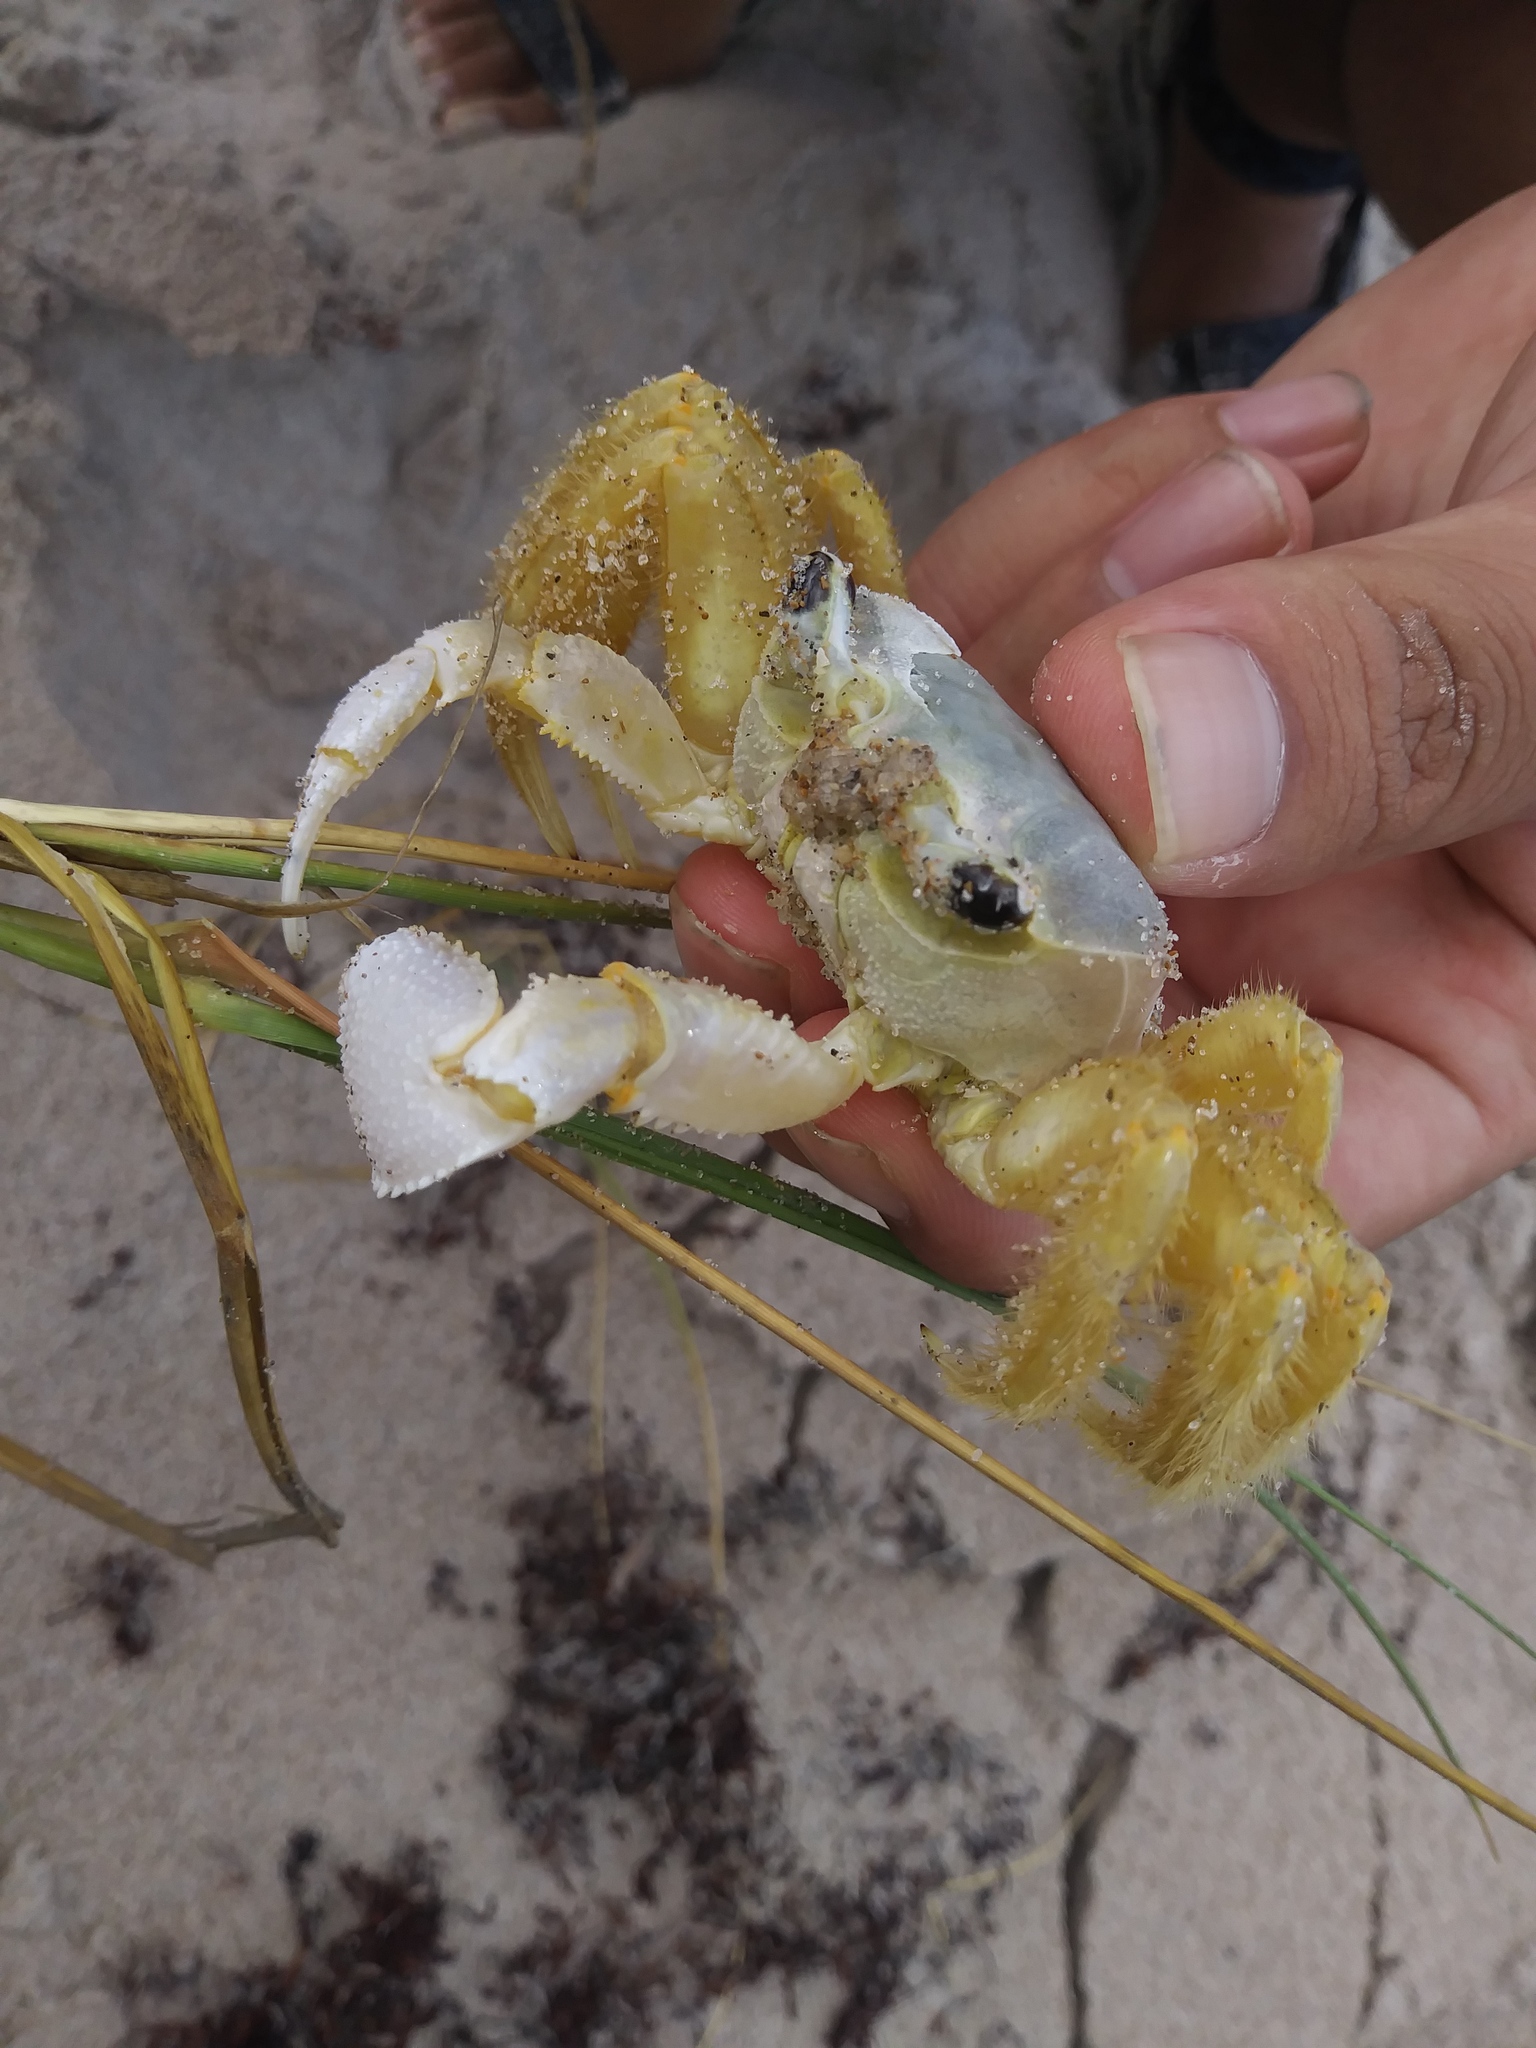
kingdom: Animalia
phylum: Arthropoda
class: Malacostraca
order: Decapoda
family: Ocypodidae
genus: Ocypode
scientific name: Ocypode quadrata
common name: Ghost crab
